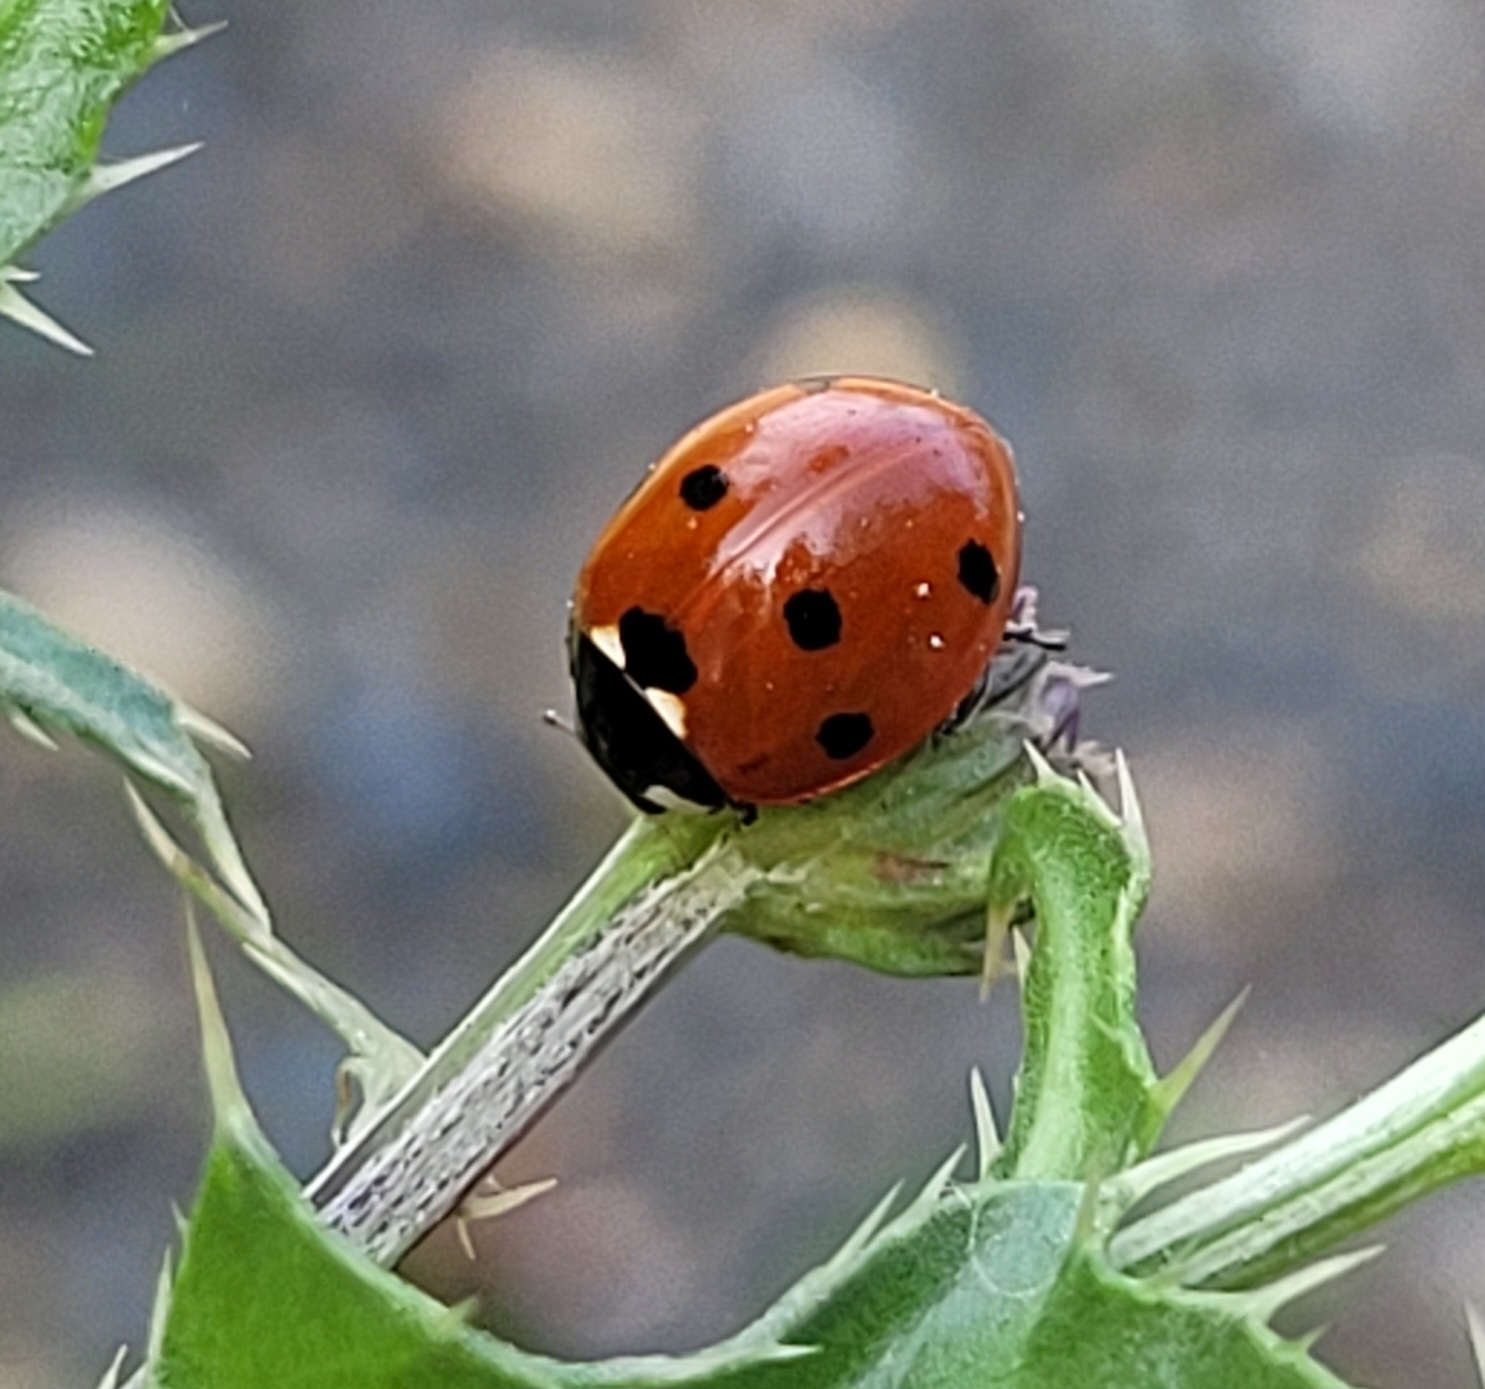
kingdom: Animalia
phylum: Arthropoda
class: Insecta
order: Coleoptera
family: Coccinellidae
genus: Coccinella
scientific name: Coccinella septempunctata
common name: Sevenspotted lady beetle
